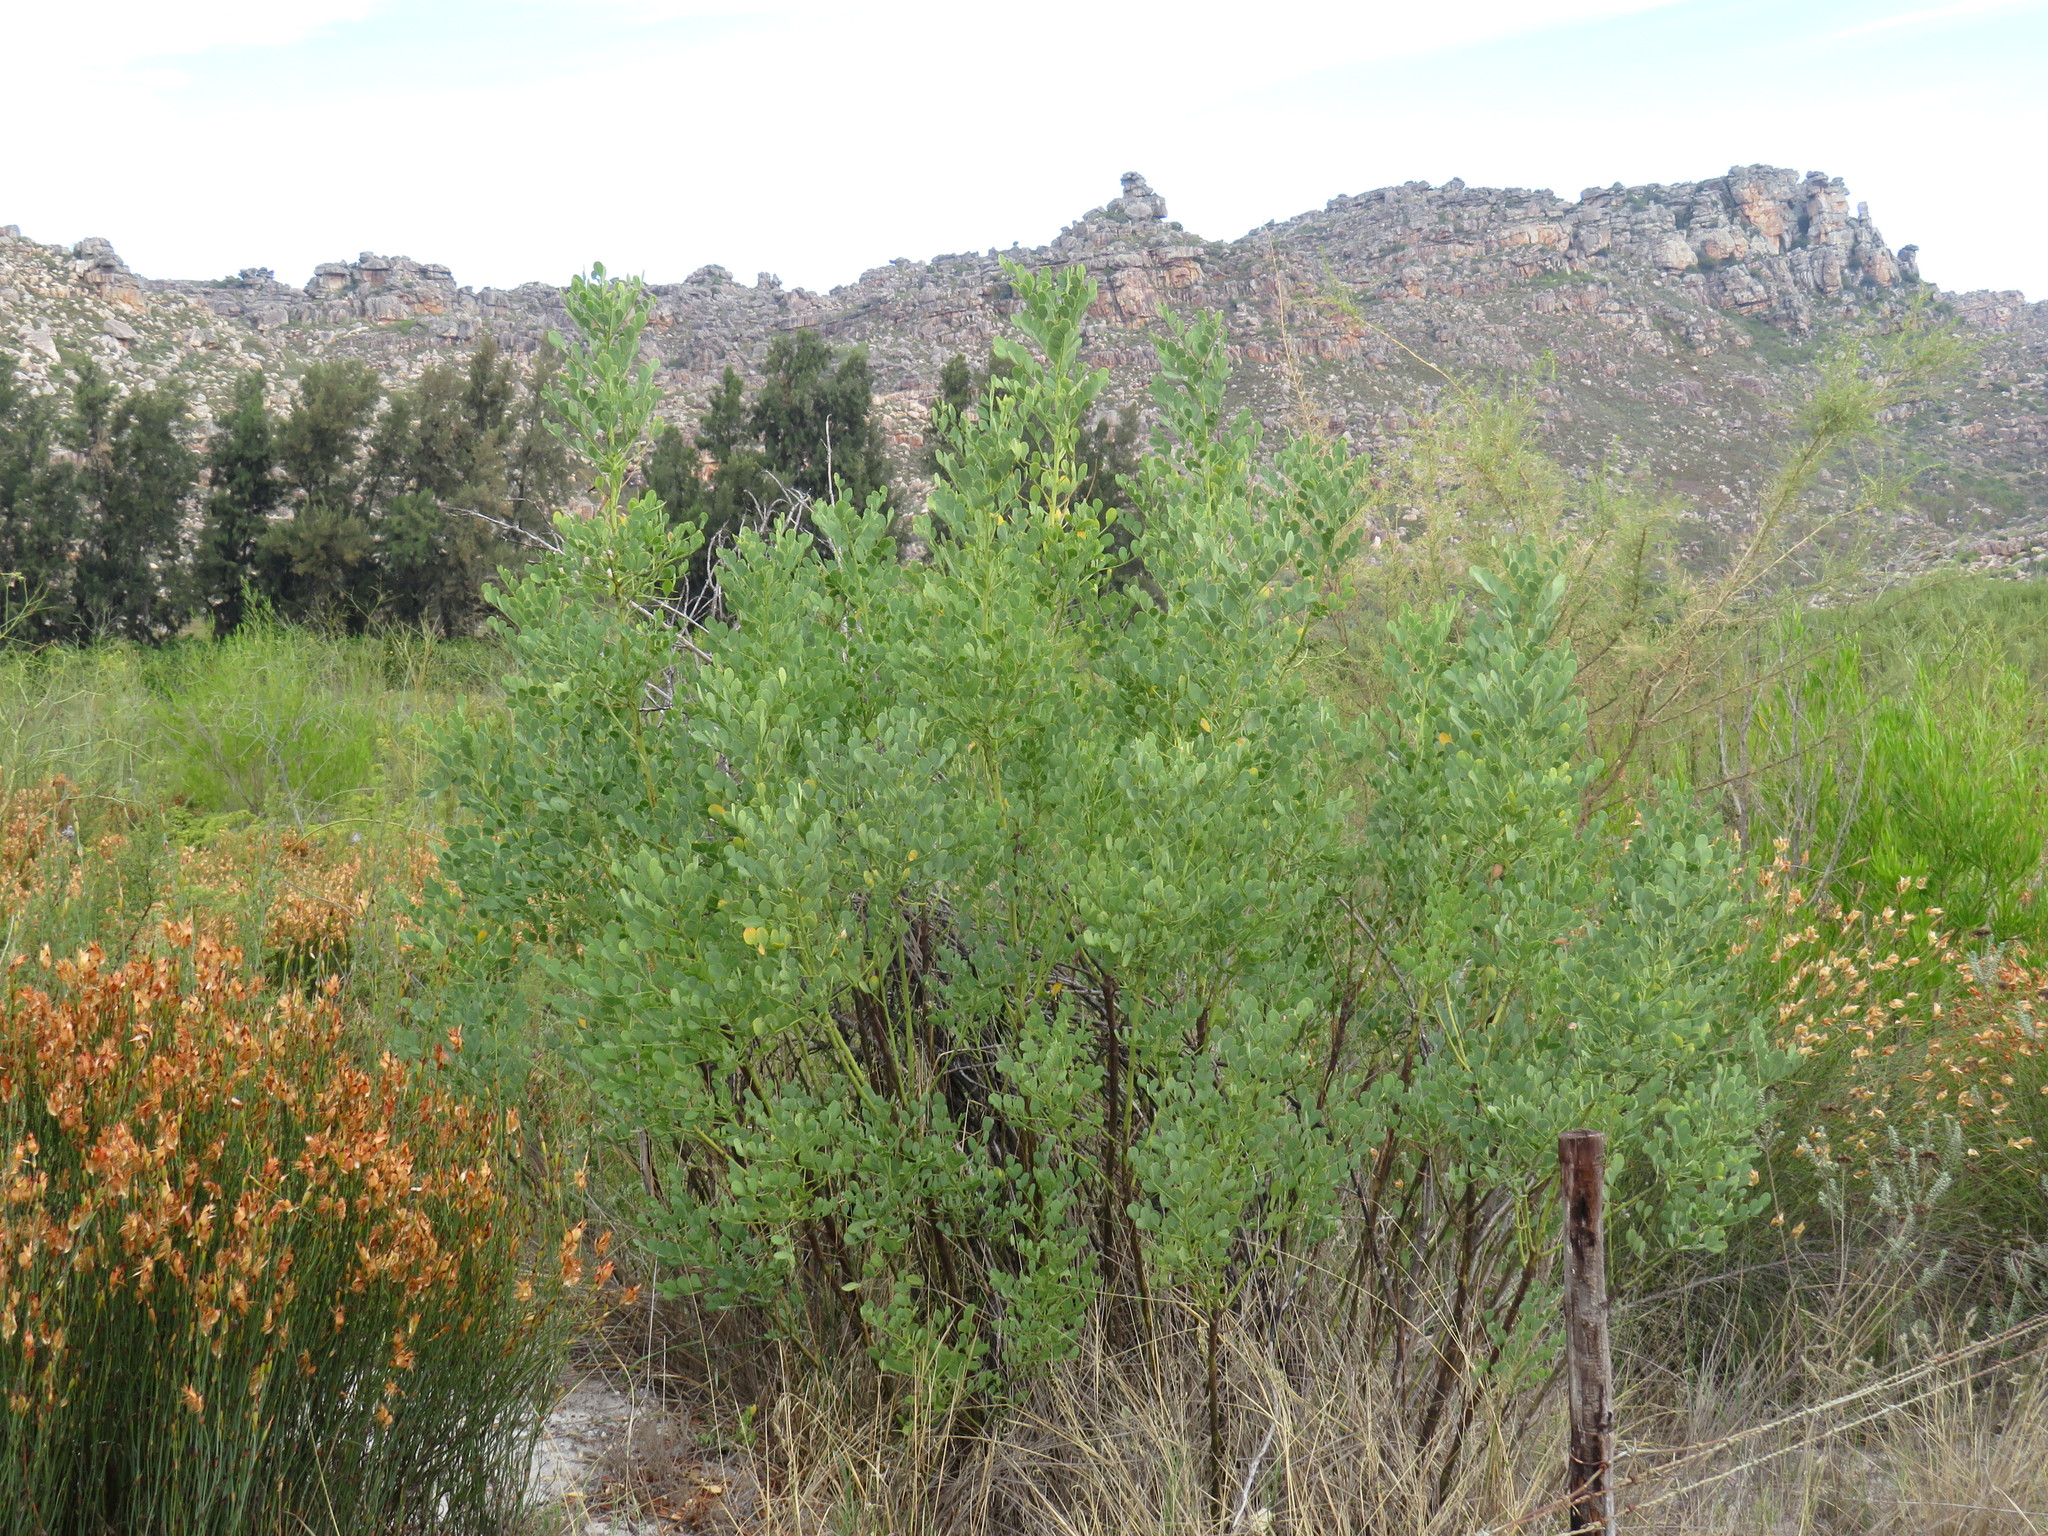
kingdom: Plantae
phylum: Tracheophyta
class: Magnoliopsida
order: Fabales
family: Fabaceae
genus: Indigofera
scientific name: Indigofera frutescens
